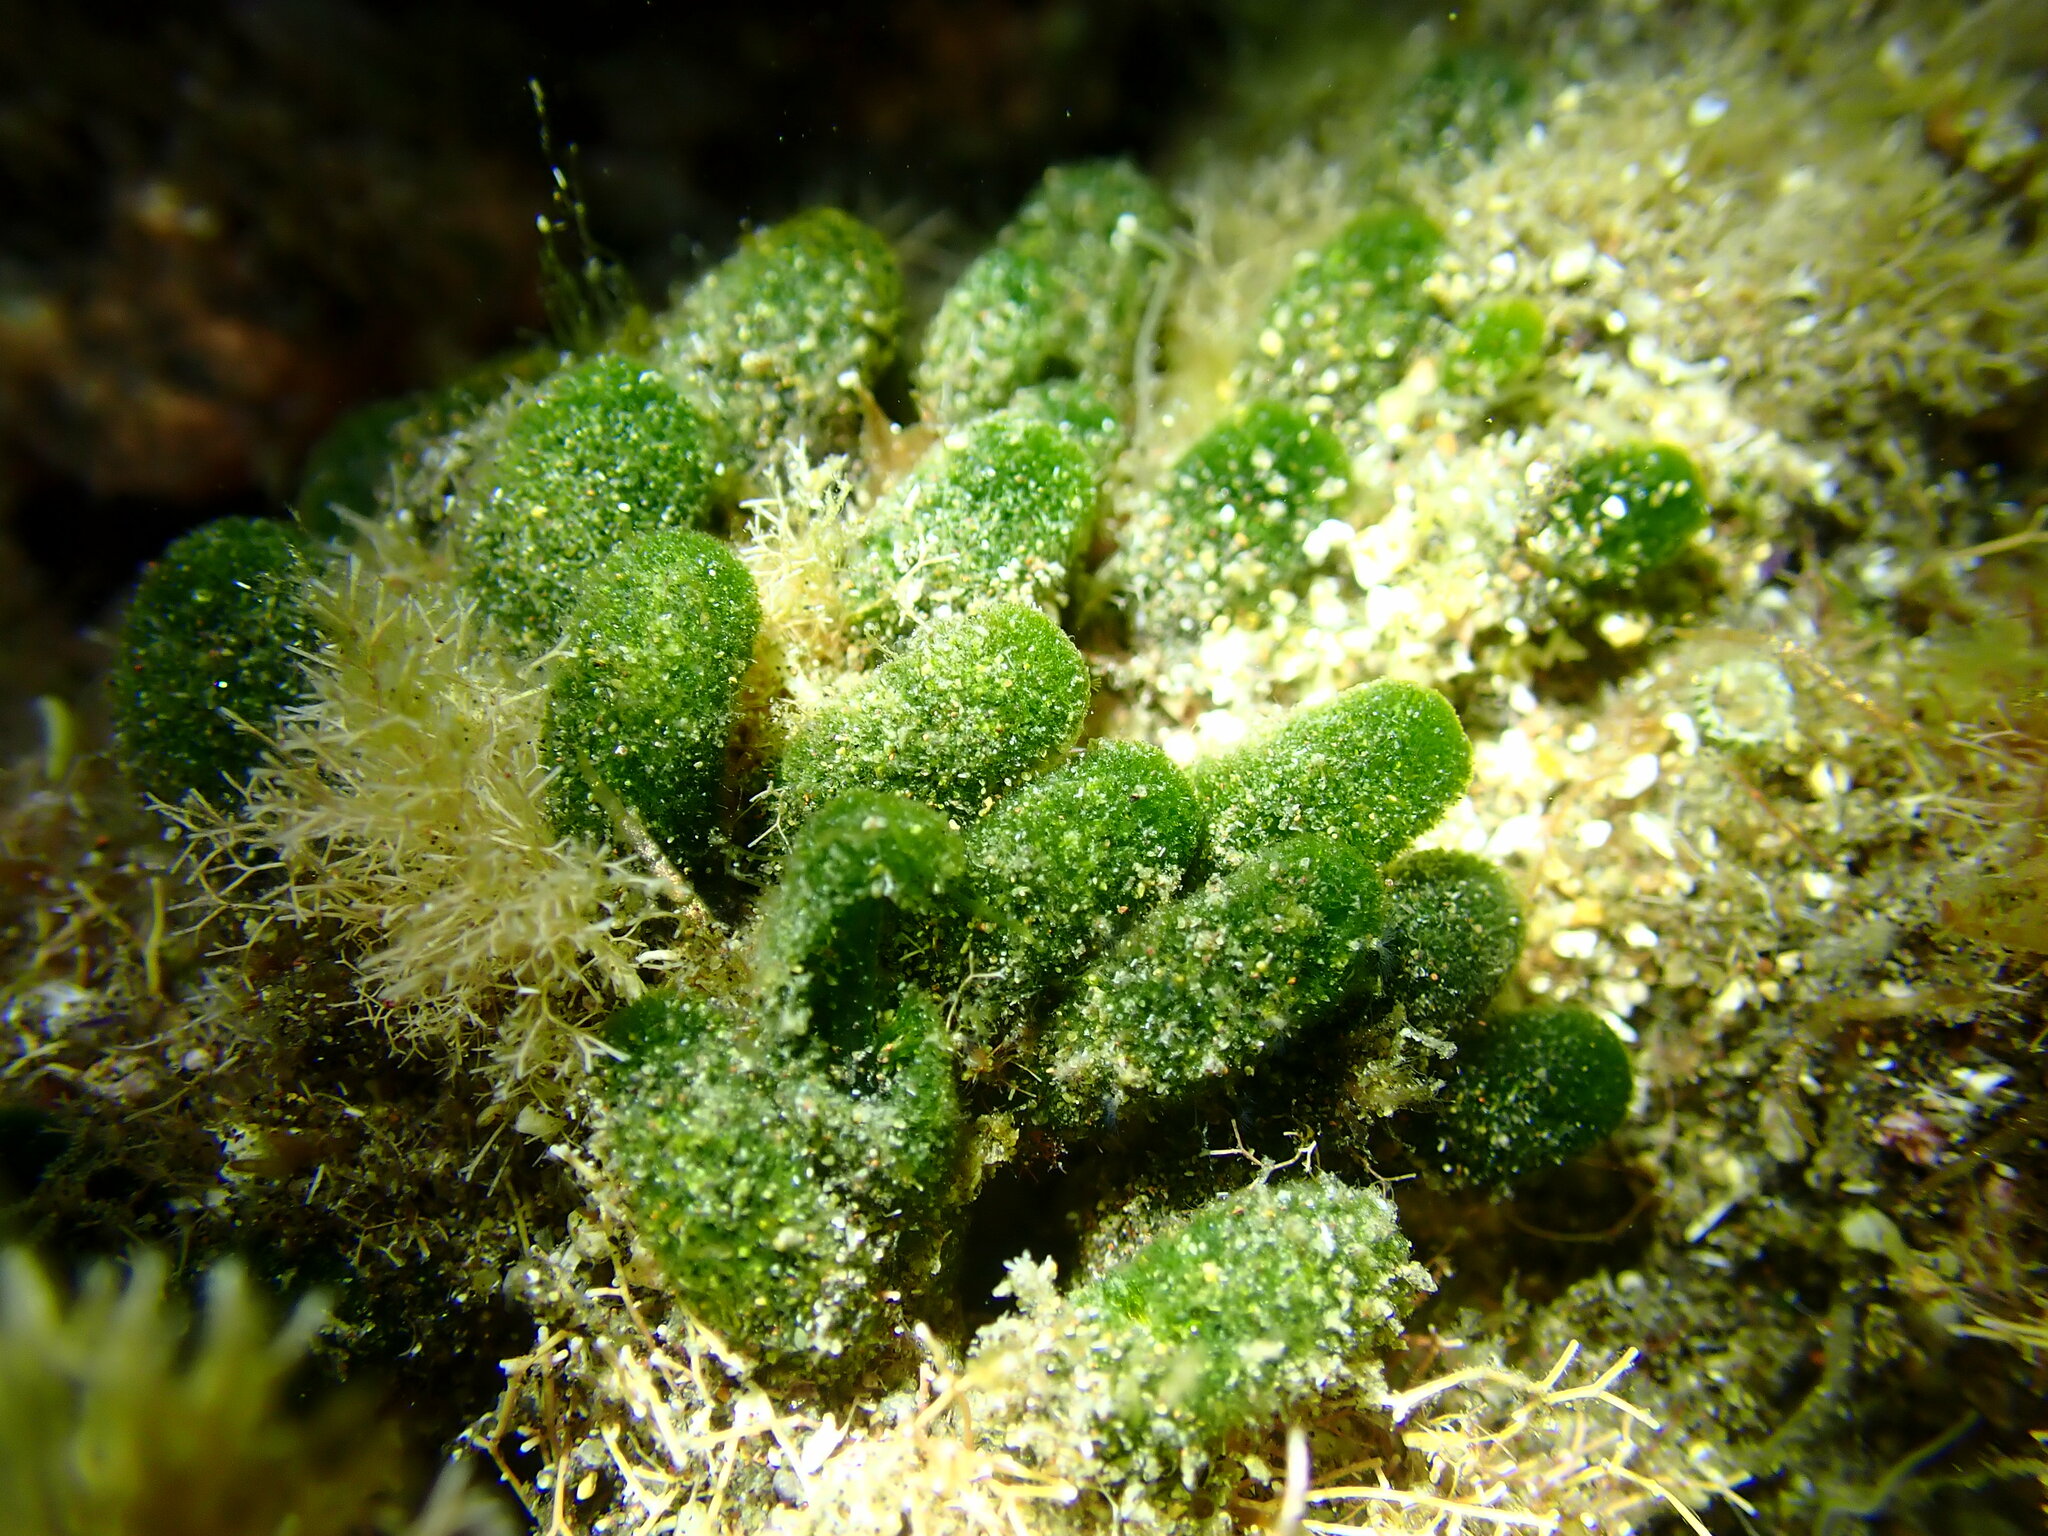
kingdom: Plantae
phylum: Chlorophyta
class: Ulvophyceae
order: Dasycladales
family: Dasycladaceae
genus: Dasycladus
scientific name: Dasycladus vermicularis
